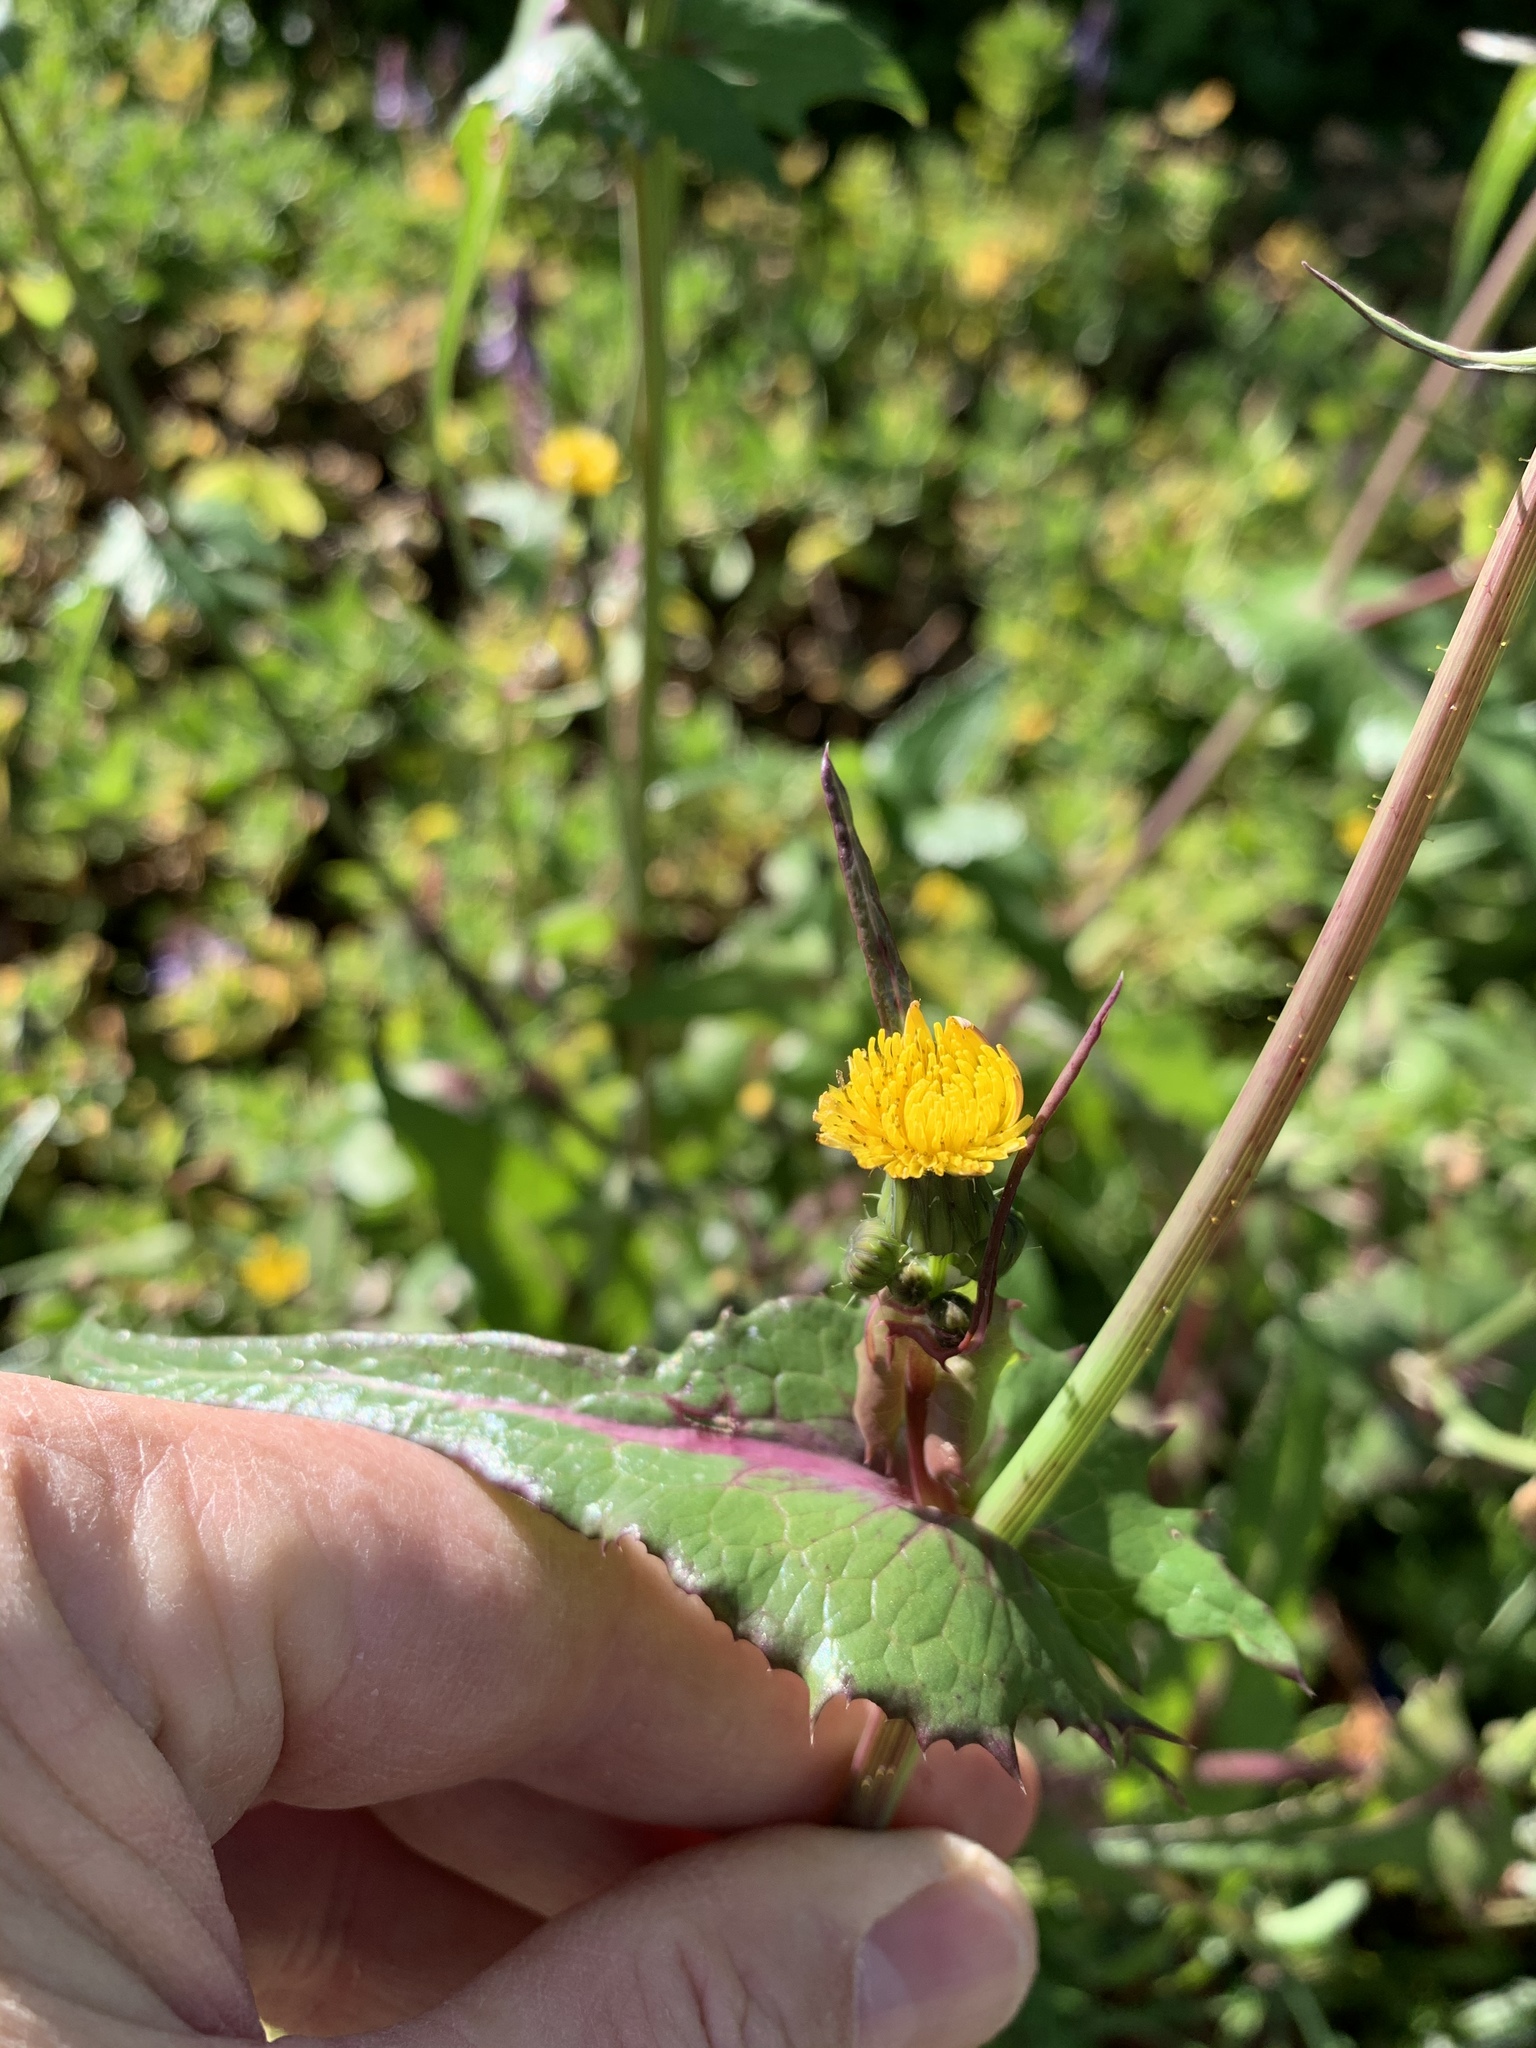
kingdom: Plantae
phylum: Tracheophyta
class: Magnoliopsida
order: Asterales
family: Asteraceae
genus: Sonchus
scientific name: Sonchus oleraceus
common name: Common sowthistle
